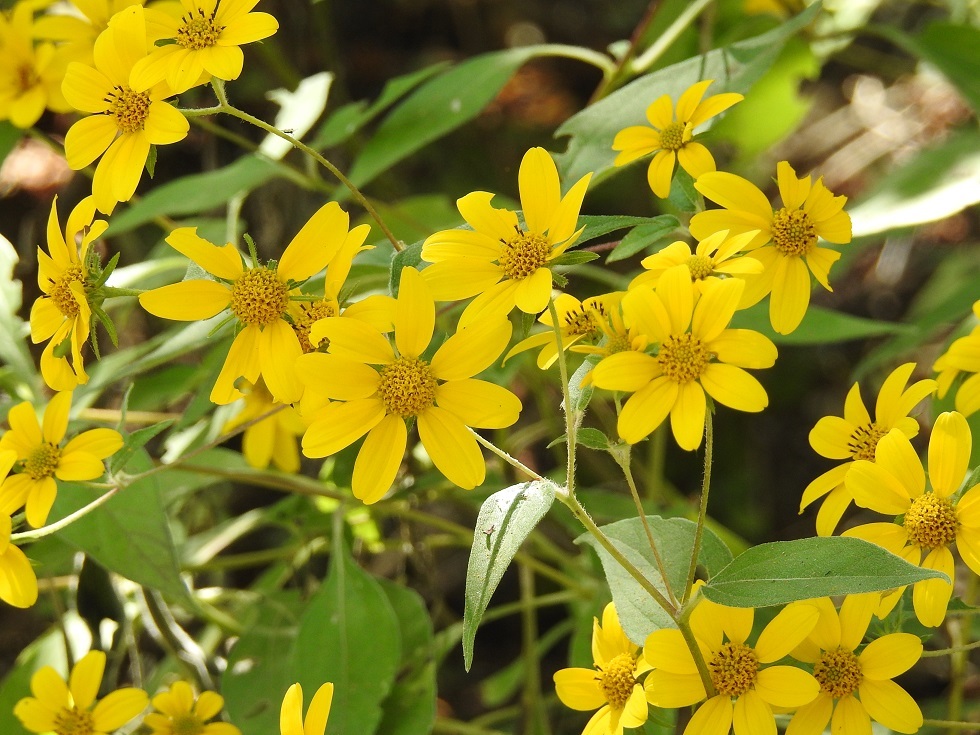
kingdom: Plantae
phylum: Tracheophyta
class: Magnoliopsida
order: Asterales
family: Asteraceae
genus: Verbesina
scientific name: Verbesina hypoglauca
